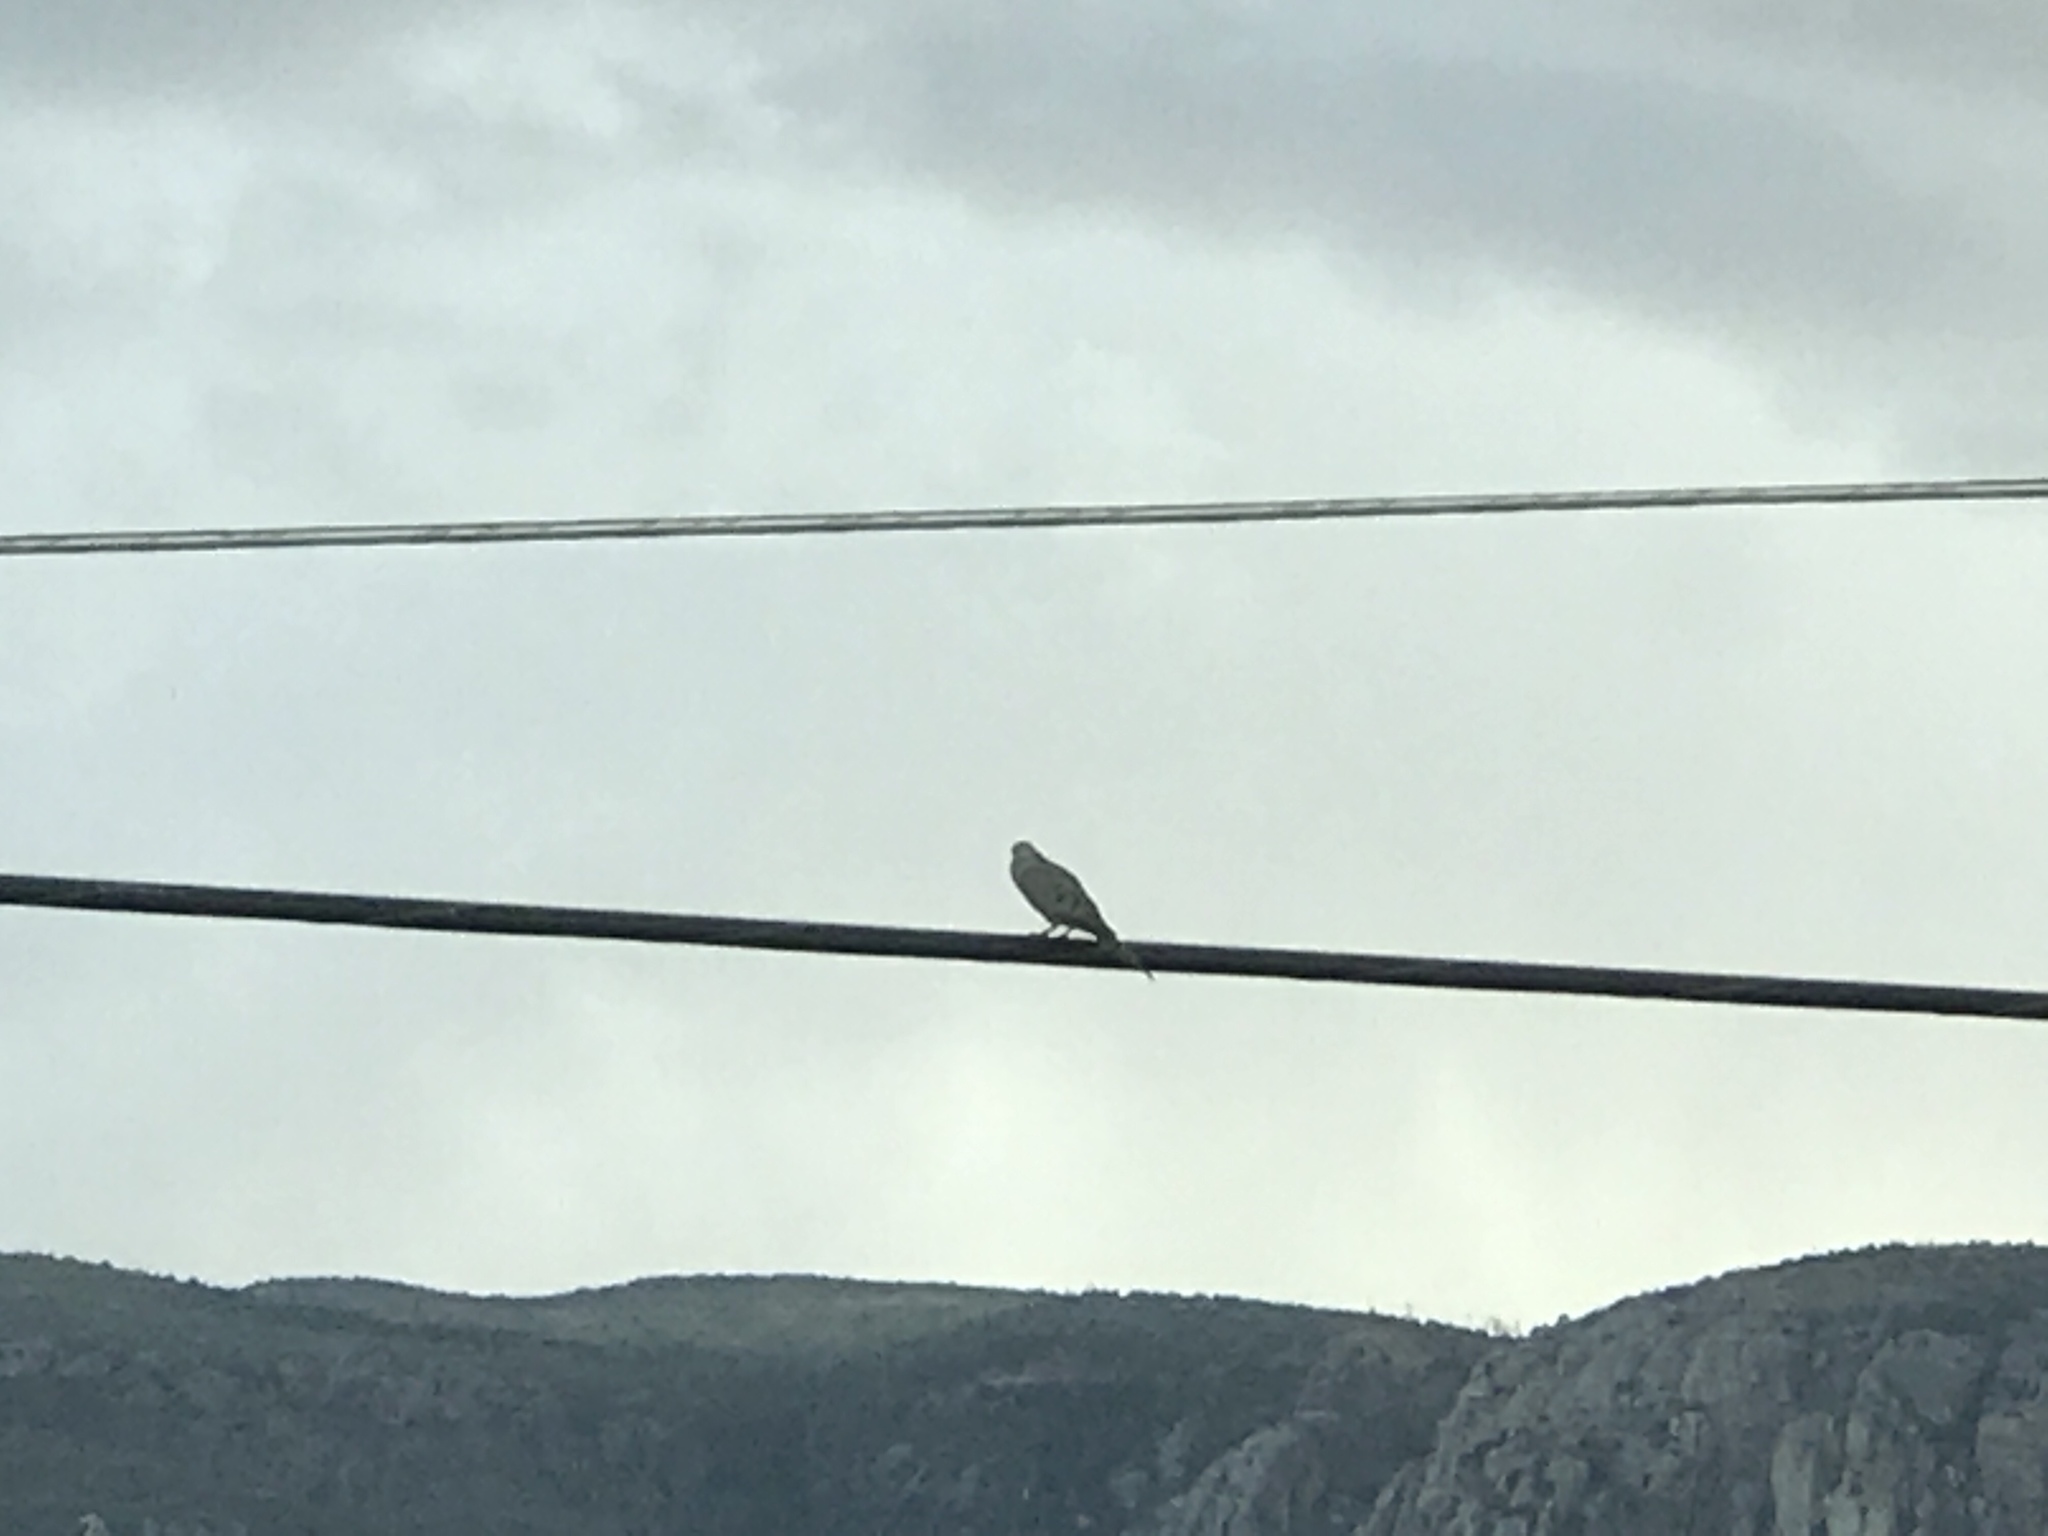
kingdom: Animalia
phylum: Chordata
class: Aves
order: Columbiformes
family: Columbidae
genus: Zenaida
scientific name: Zenaida macroura
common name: Mourning dove
